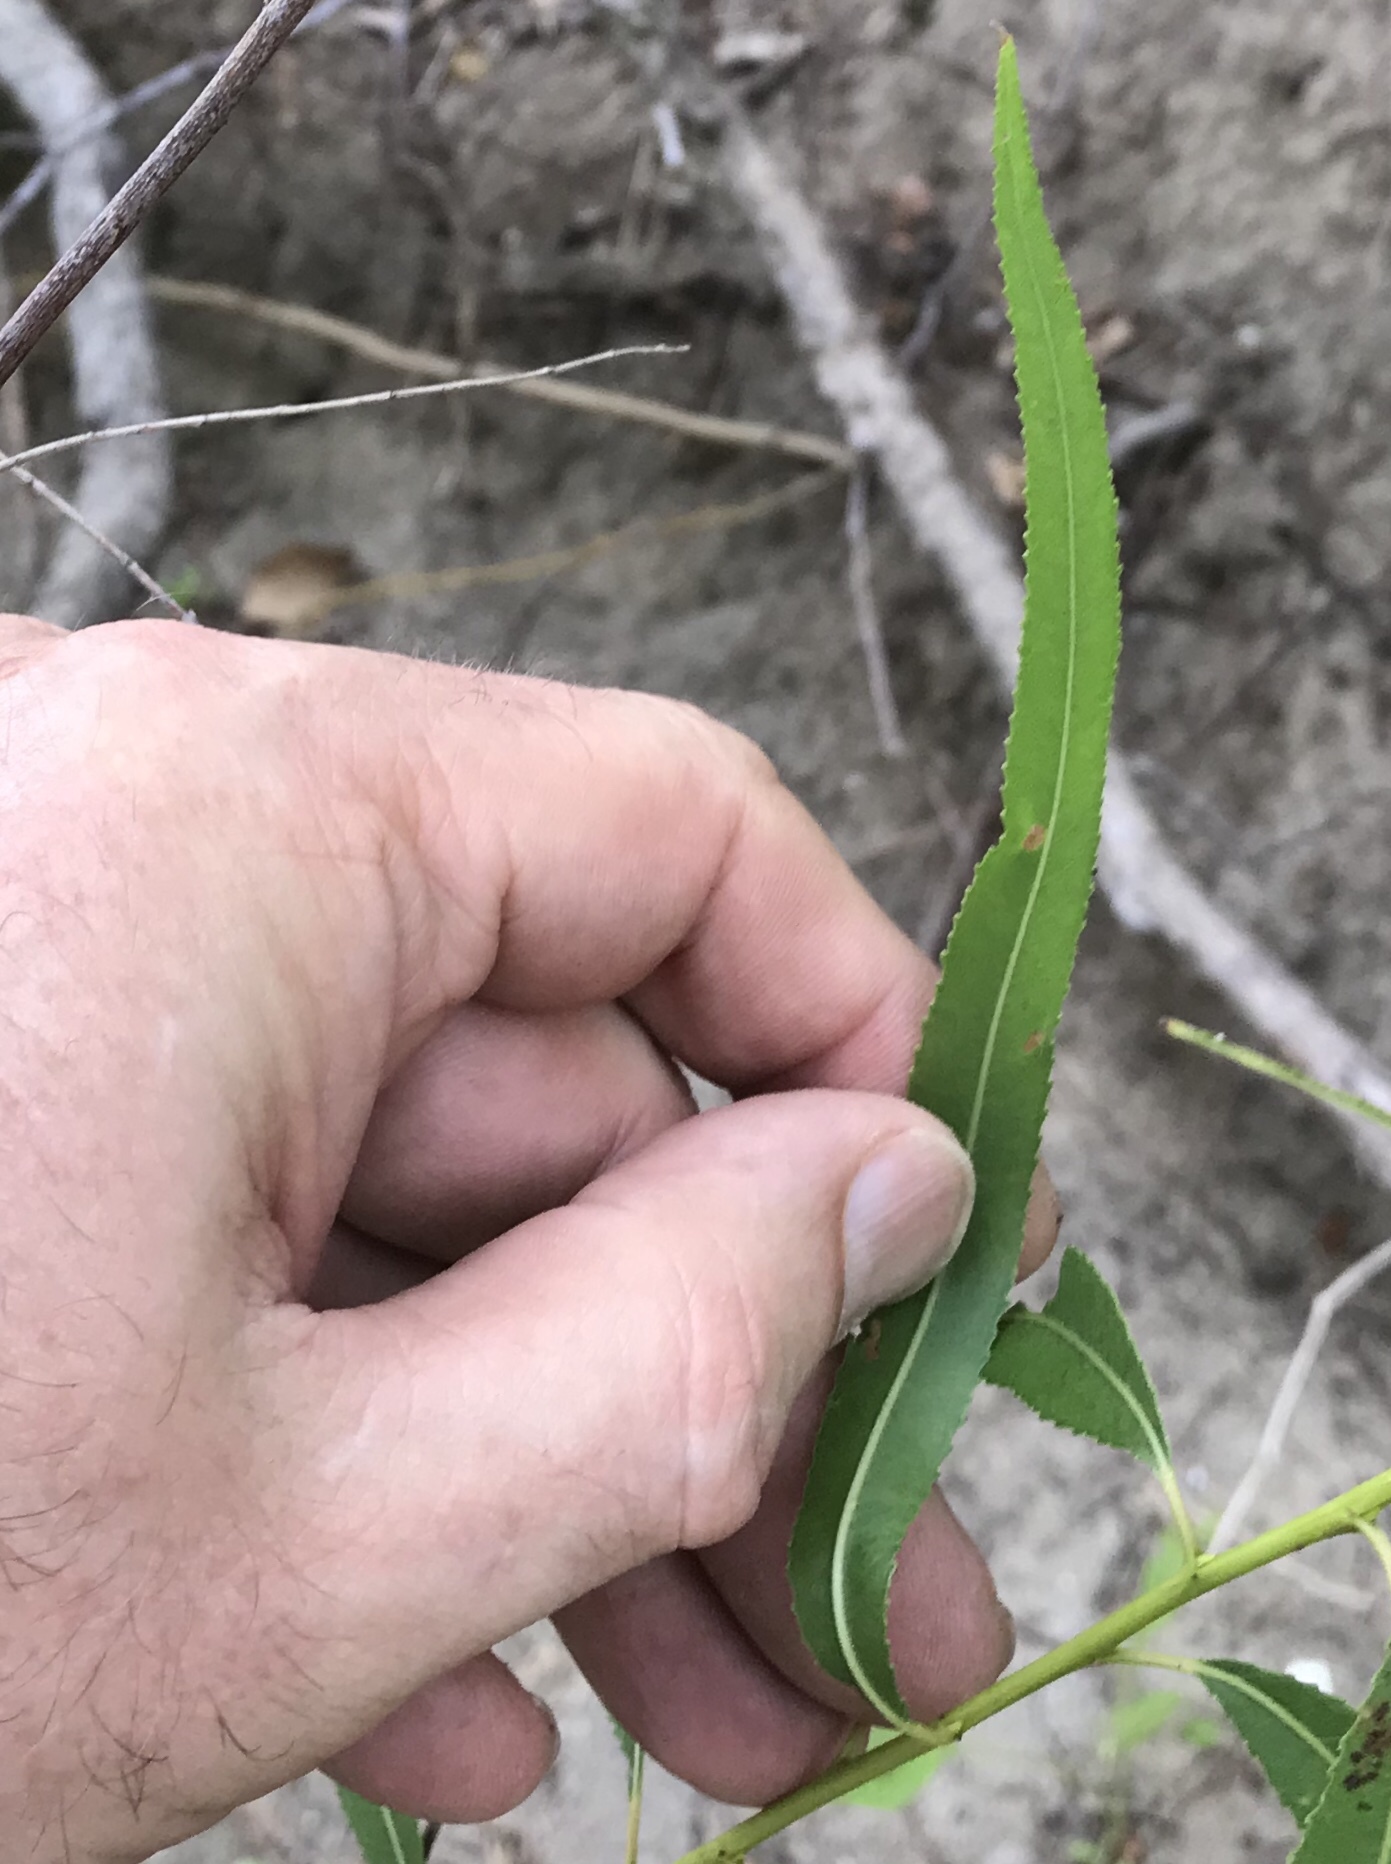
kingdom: Plantae
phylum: Tracheophyta
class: Magnoliopsida
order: Malpighiales
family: Salicaceae
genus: Salix
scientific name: Salix nigra
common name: Black willow
